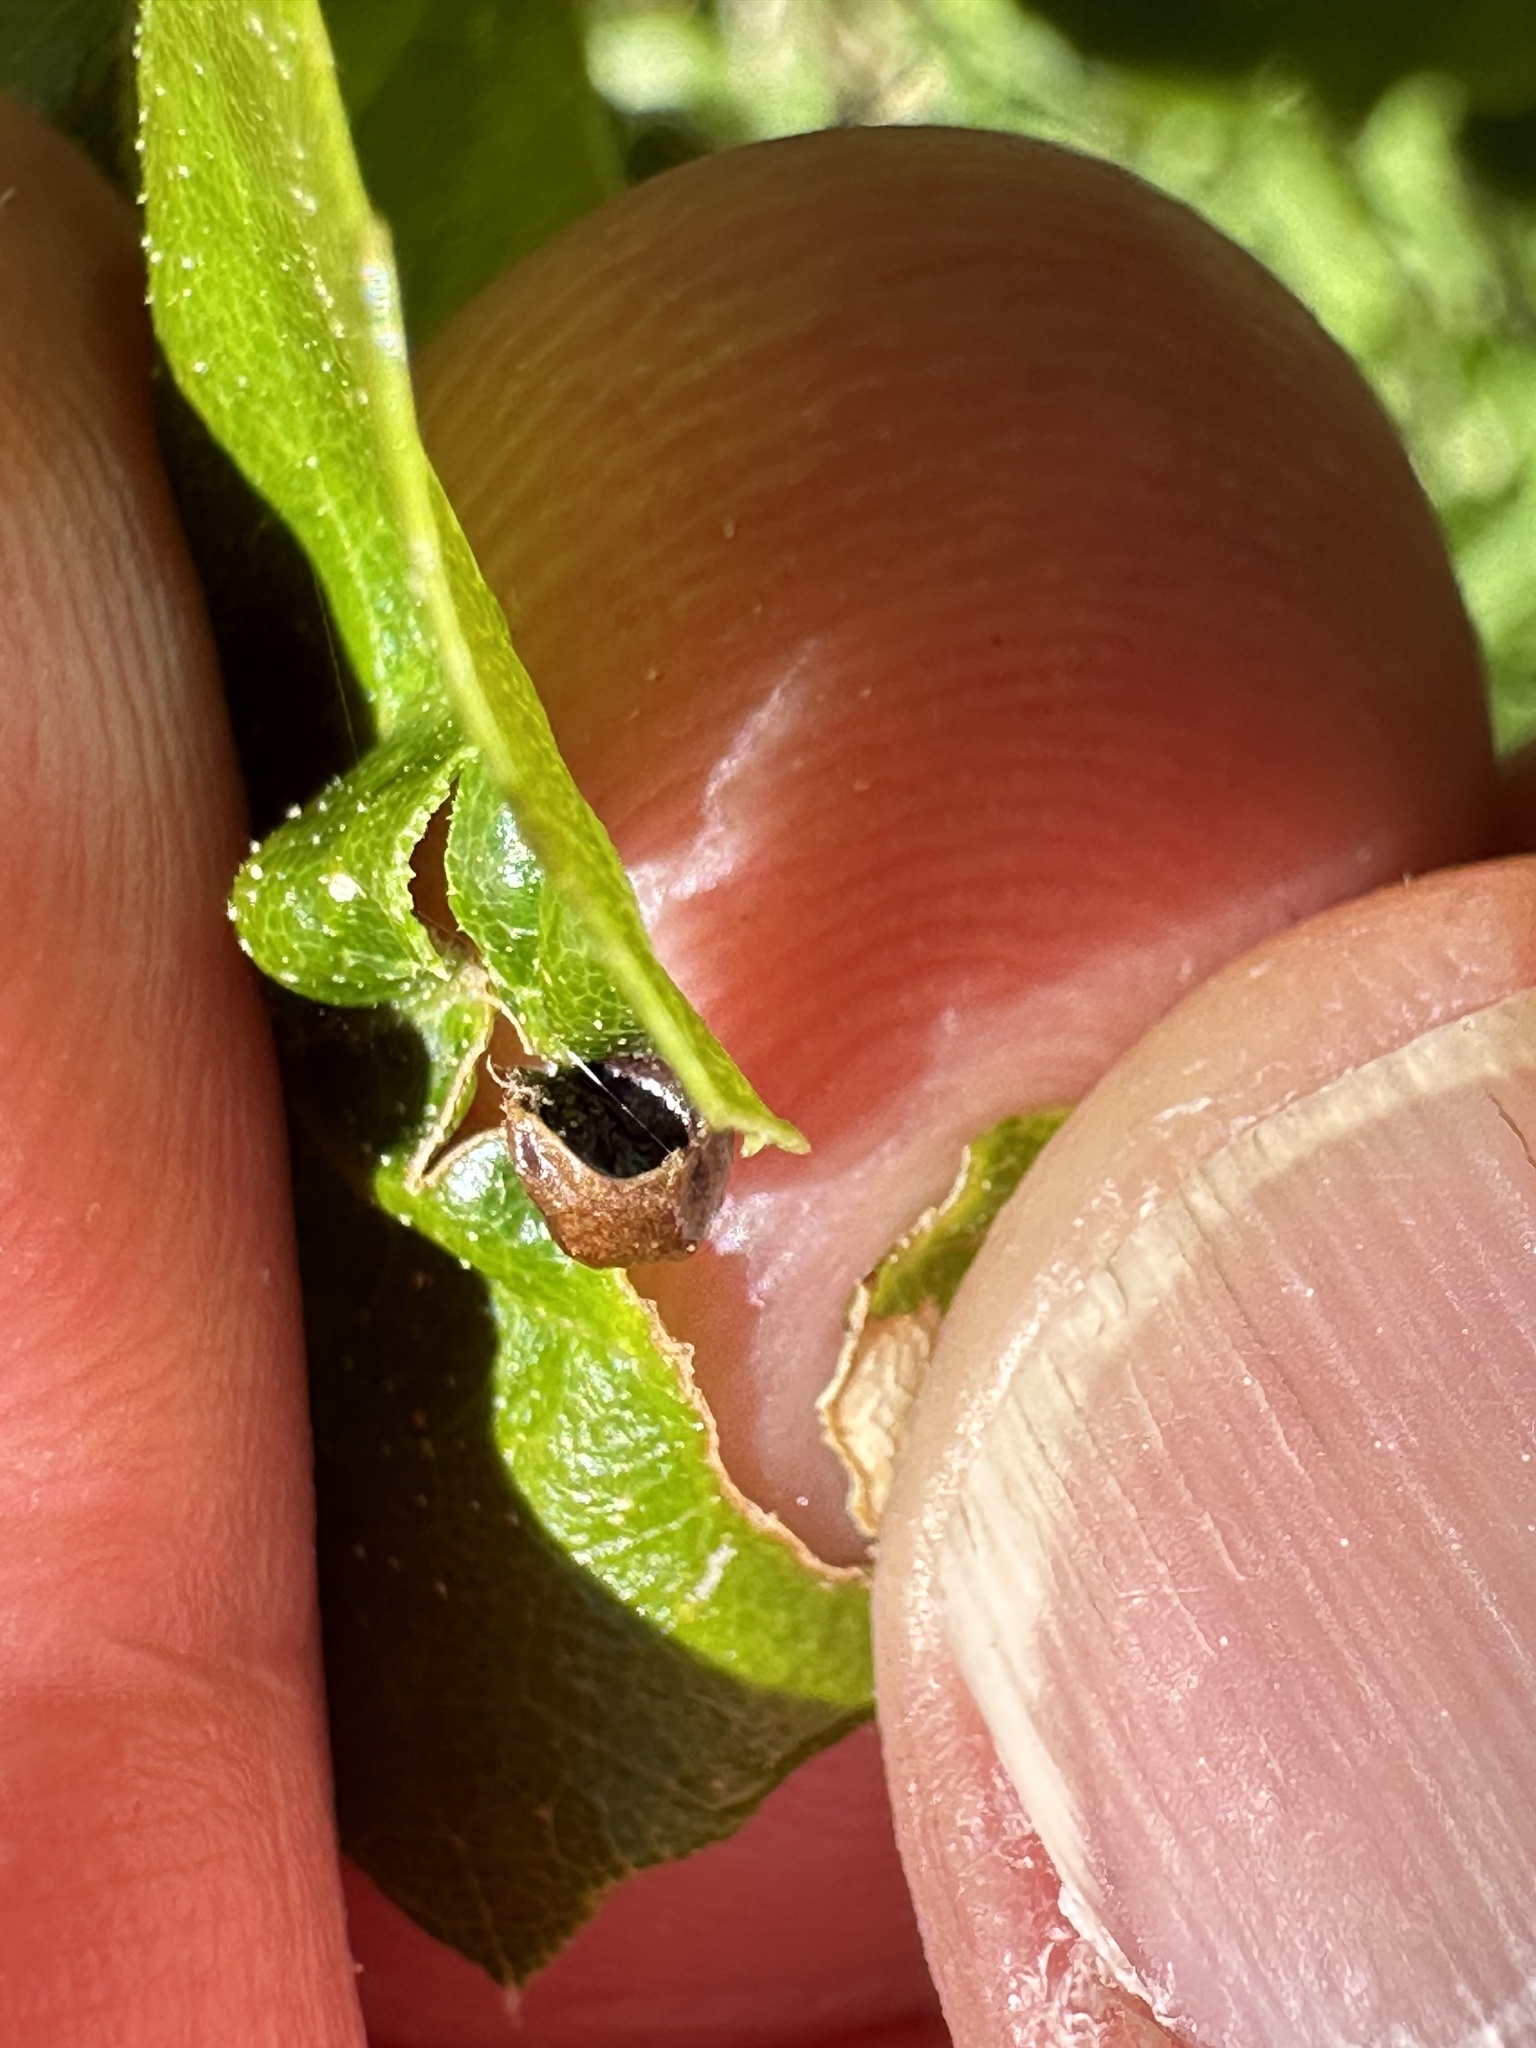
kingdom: Animalia
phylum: Arthropoda
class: Insecta
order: Hymenoptera
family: Cynipidae
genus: Dryocosmus
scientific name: Dryocosmus
